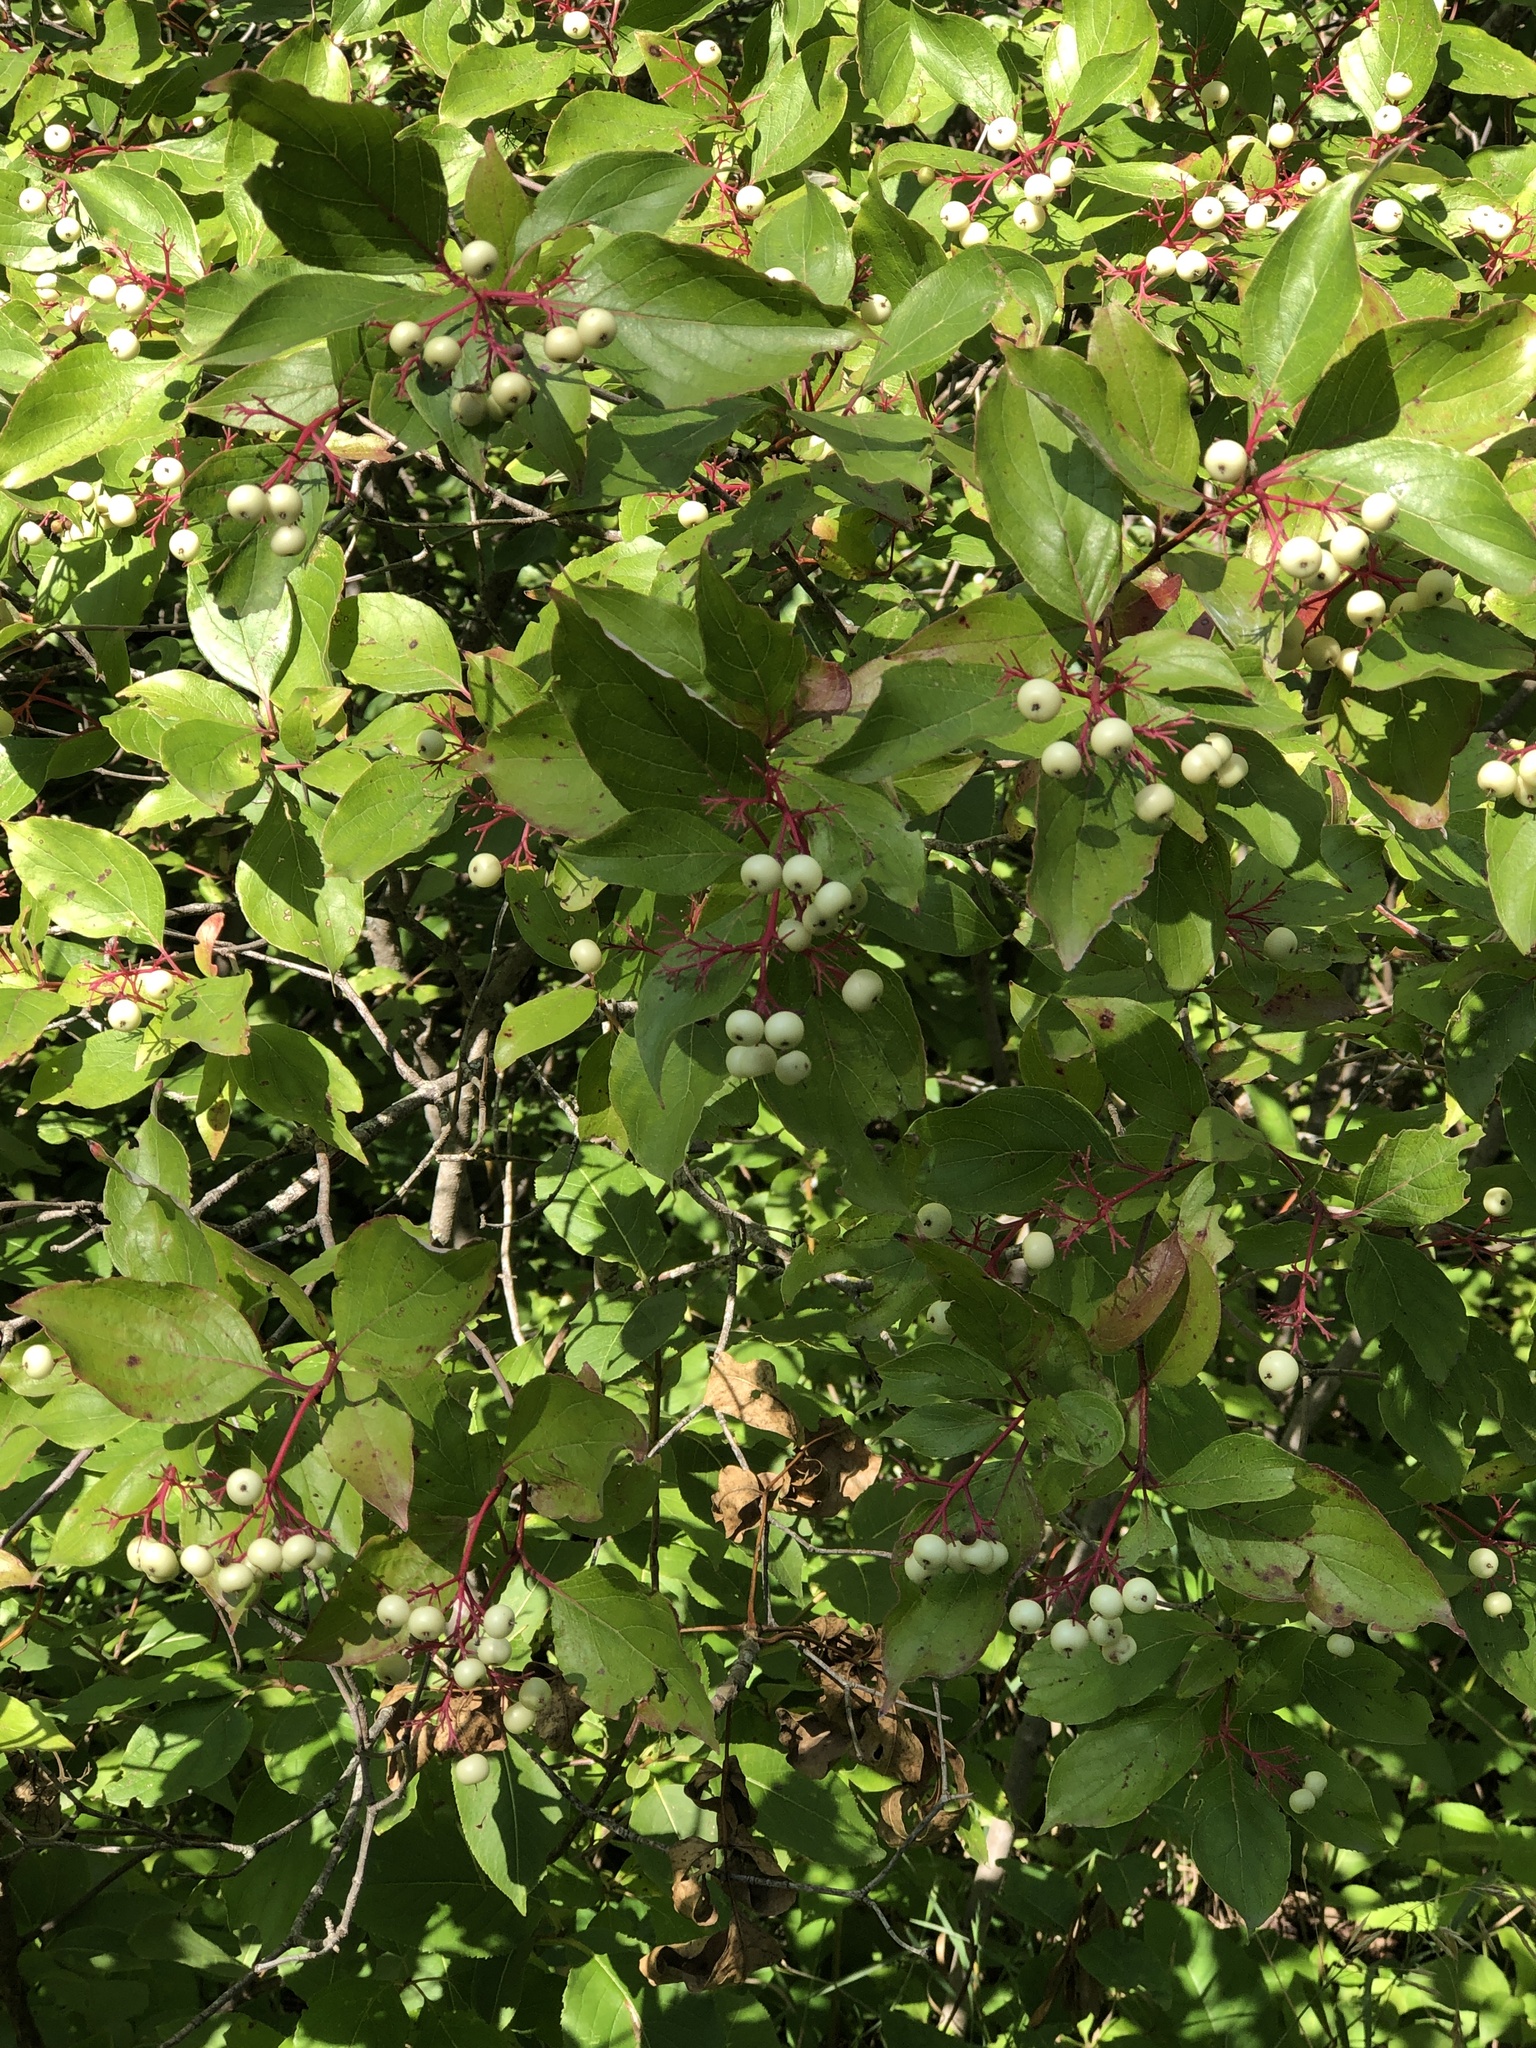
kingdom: Plantae
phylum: Tracheophyta
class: Magnoliopsida
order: Cornales
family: Cornaceae
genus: Cornus
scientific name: Cornus racemosa
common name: Panicled dogwood
